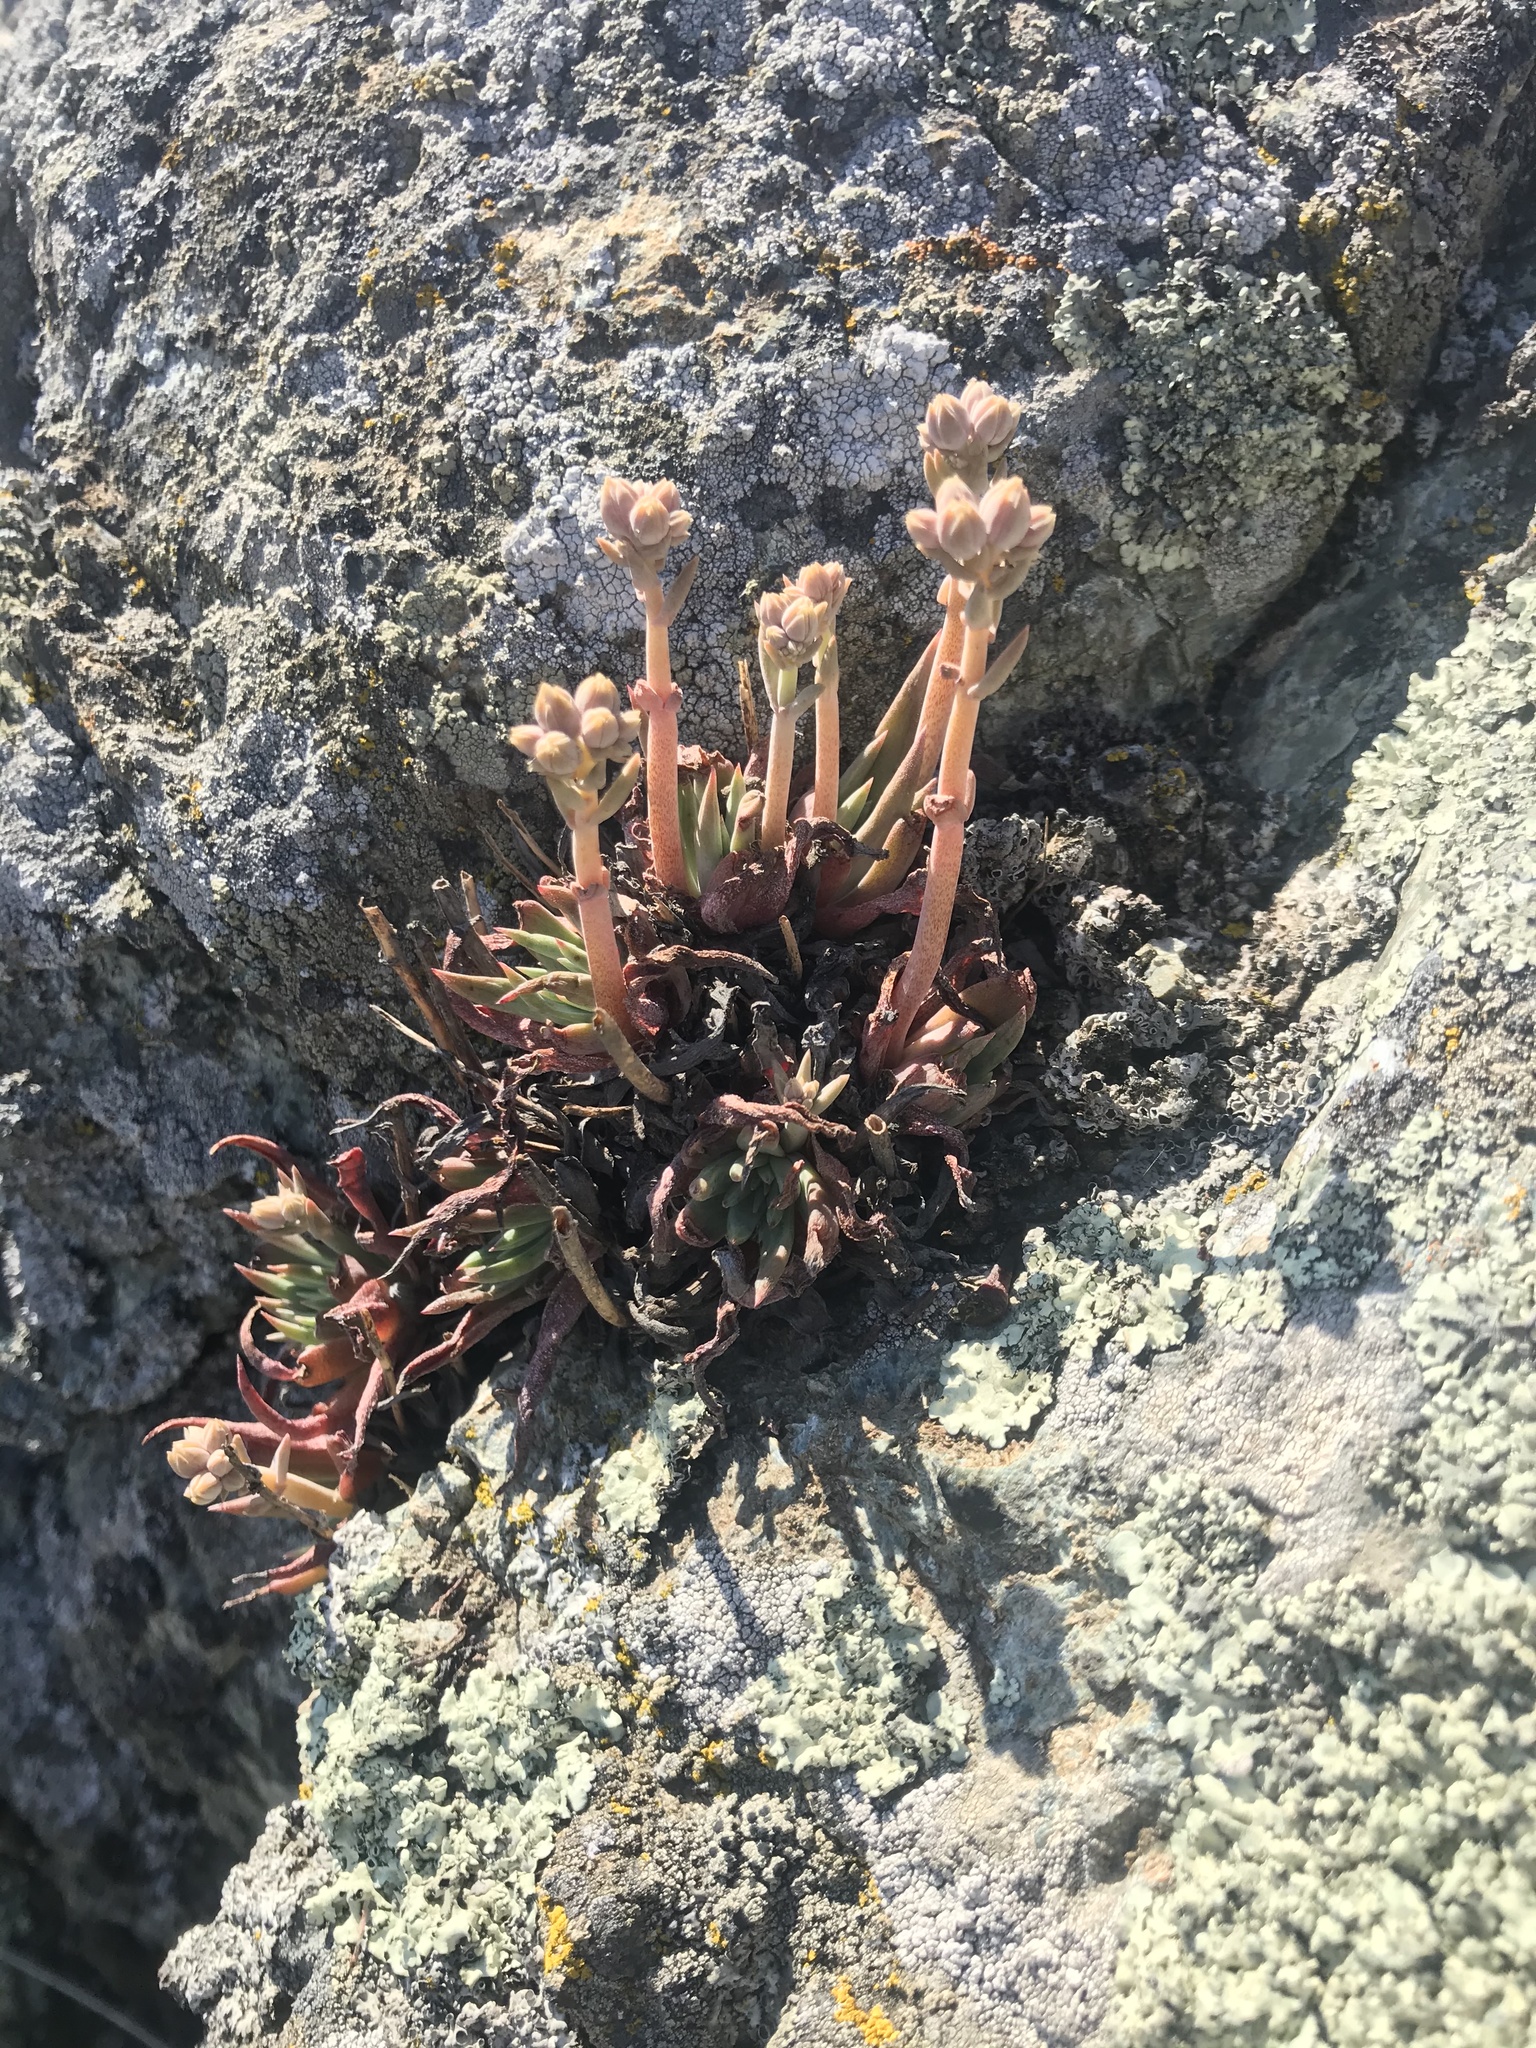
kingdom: Plantae
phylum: Tracheophyta
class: Magnoliopsida
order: Saxifragales
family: Crassulaceae
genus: Dudleya
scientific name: Dudleya abramsii
